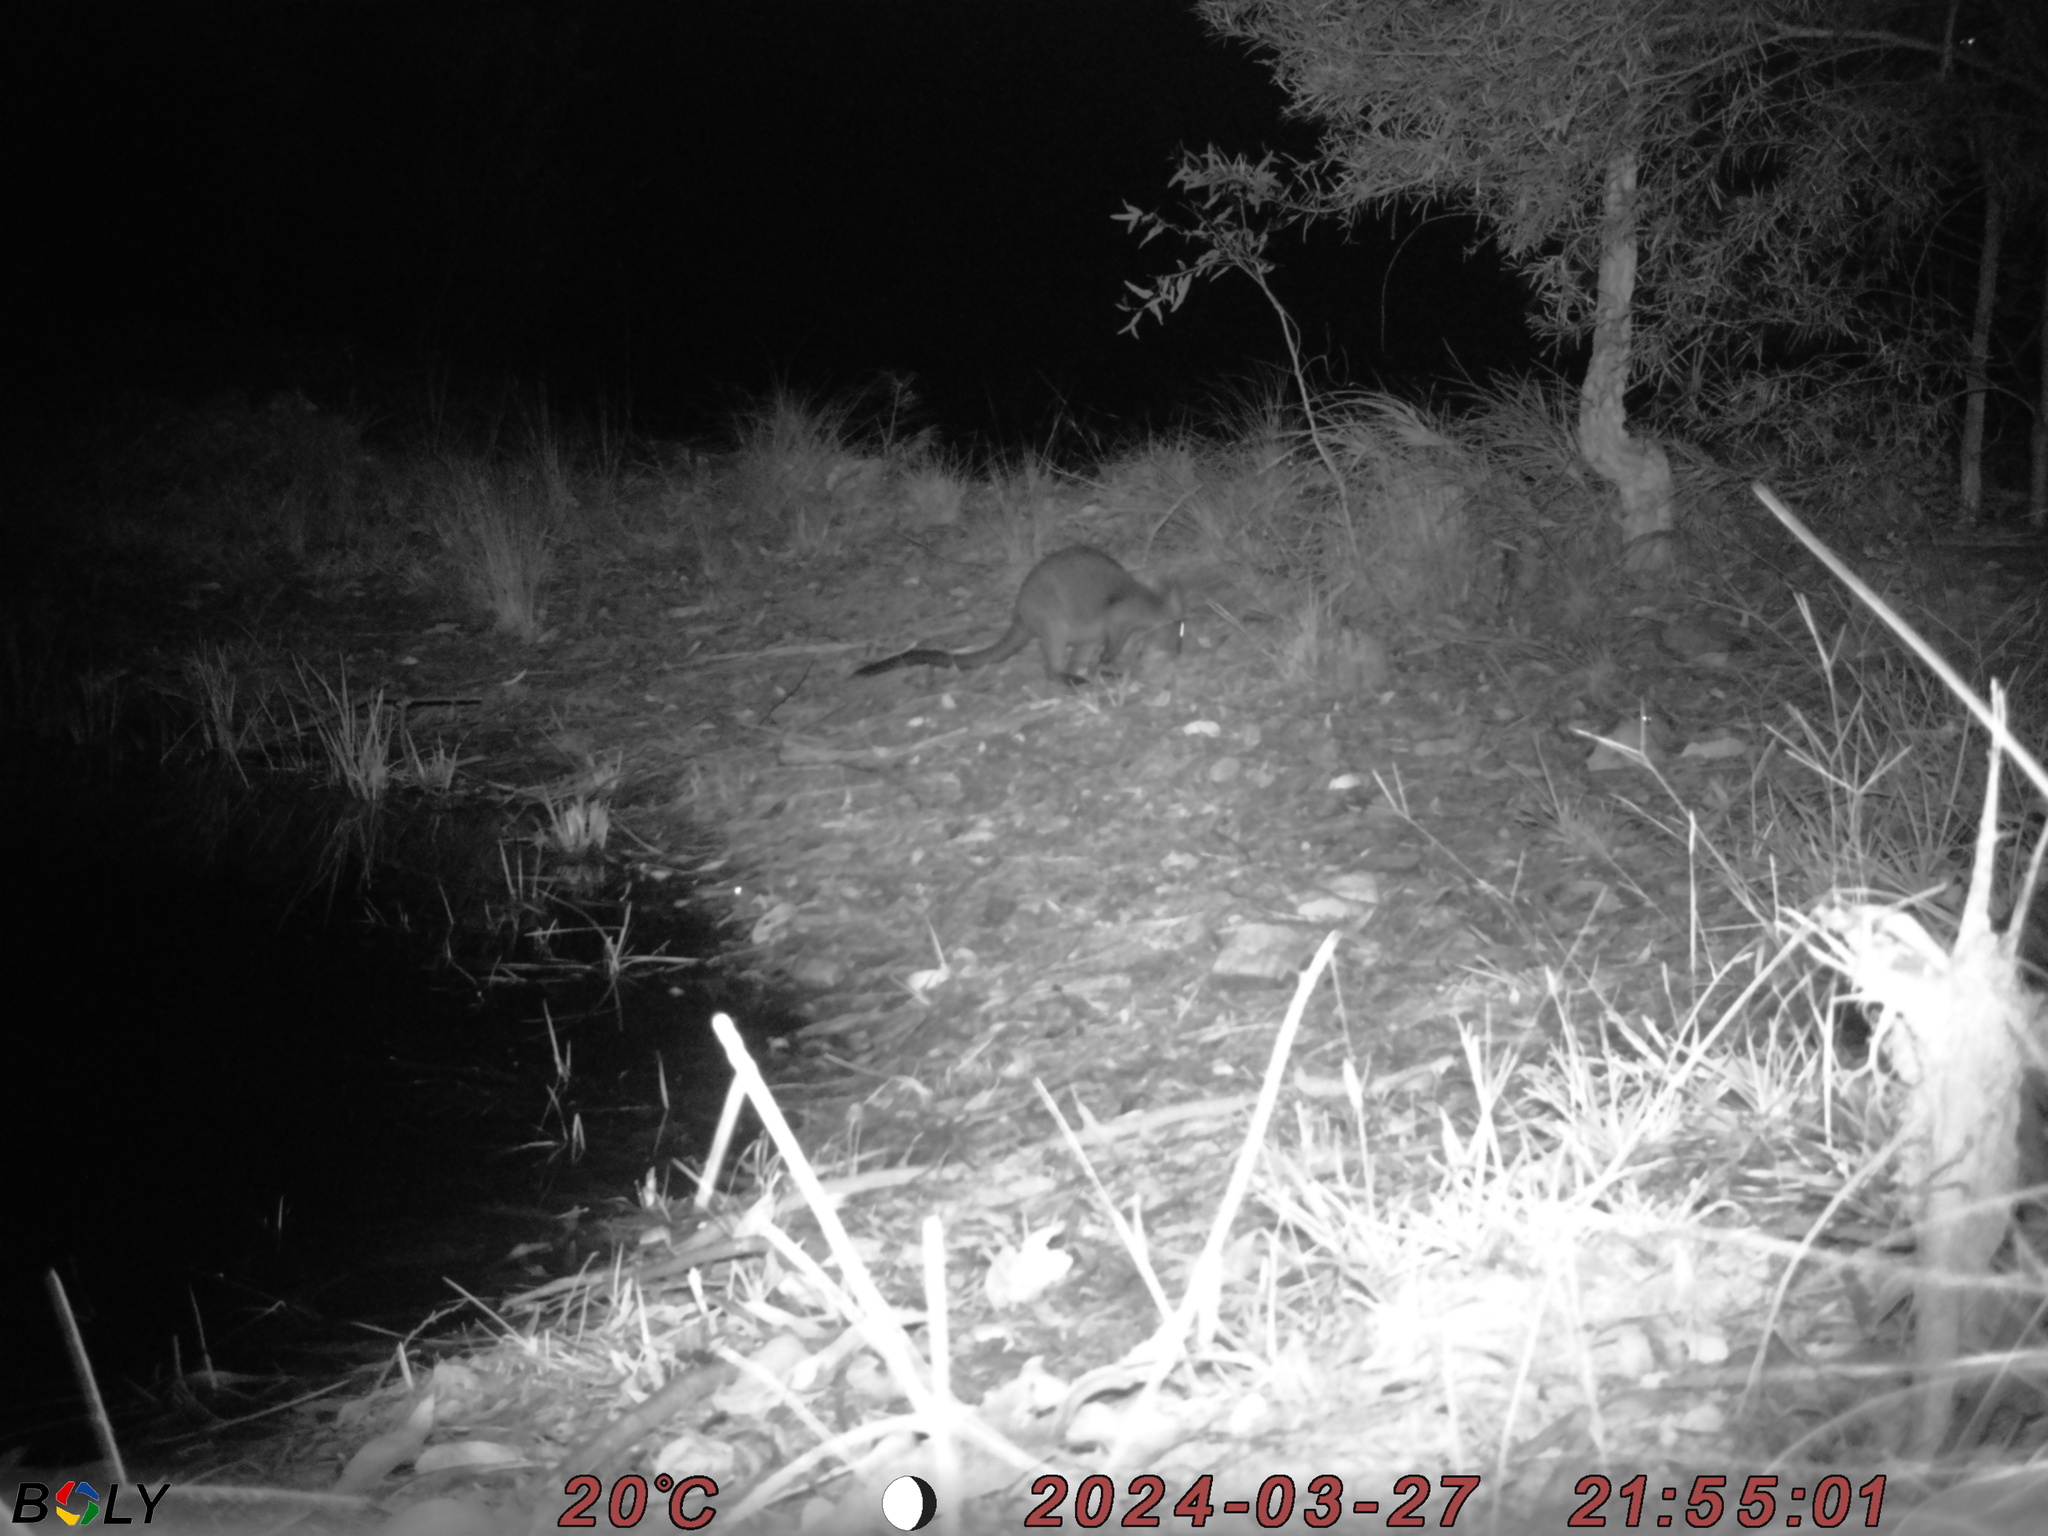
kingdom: Animalia
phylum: Chordata
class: Mammalia
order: Diprotodontia
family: Macropodidae
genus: Wallabia
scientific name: Wallabia bicolor
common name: Swamp wallaby
